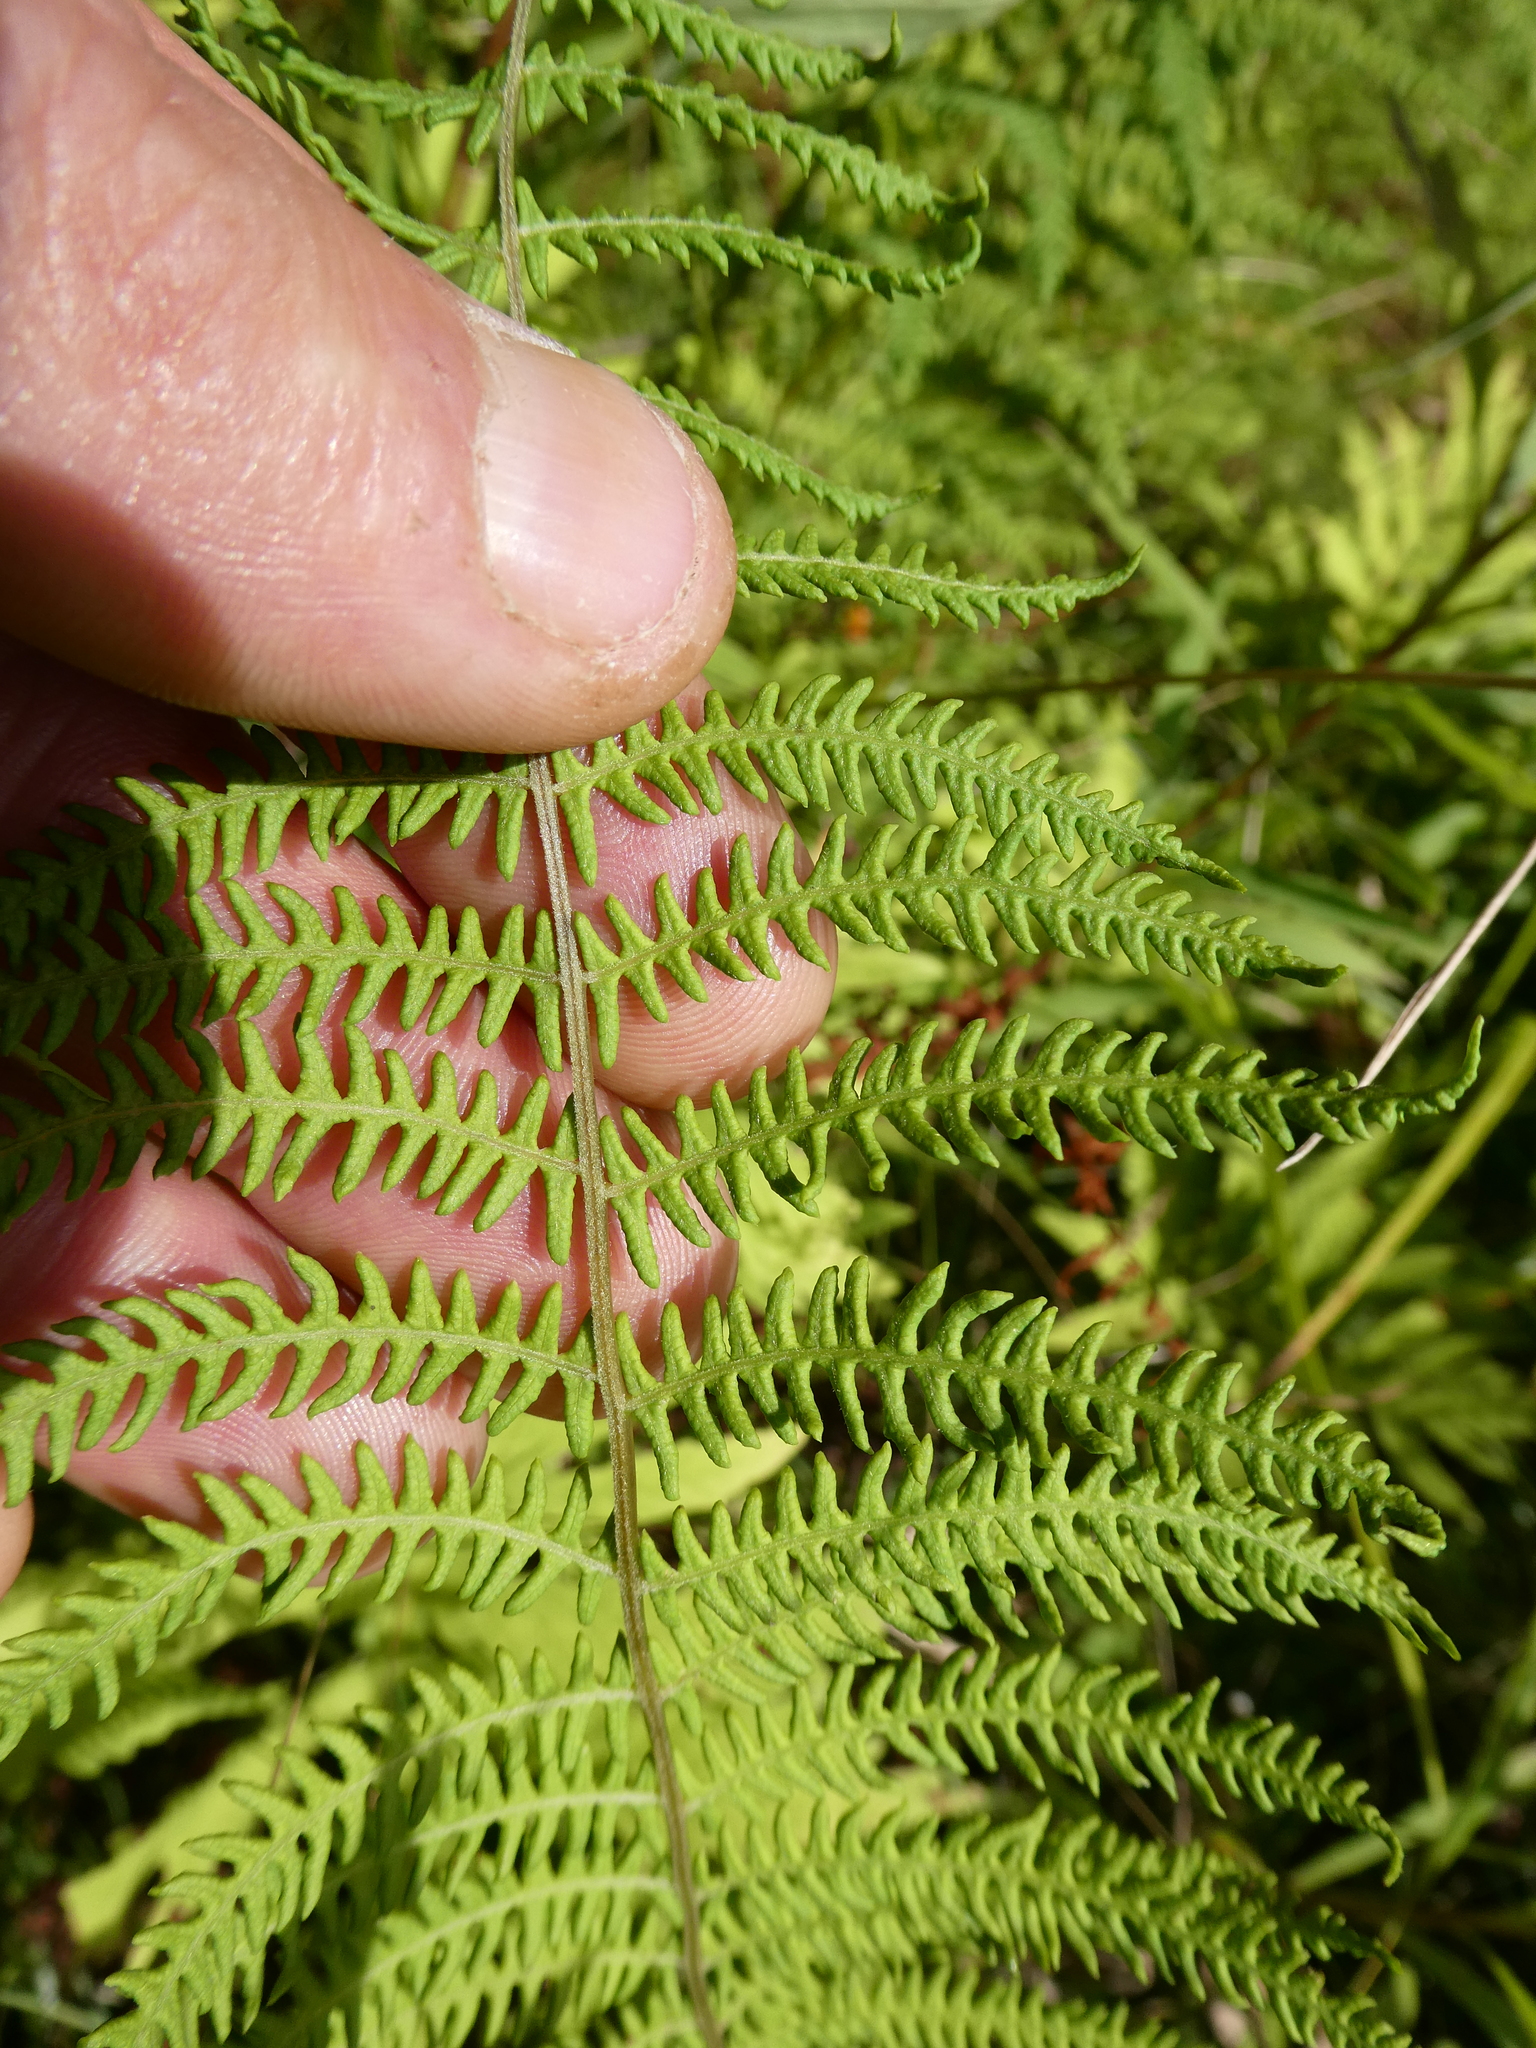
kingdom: Plantae
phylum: Tracheophyta
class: Polypodiopsida
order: Polypodiales
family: Thelypteridaceae
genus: Thelypteris
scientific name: Thelypteris palustris
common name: Marsh fern
